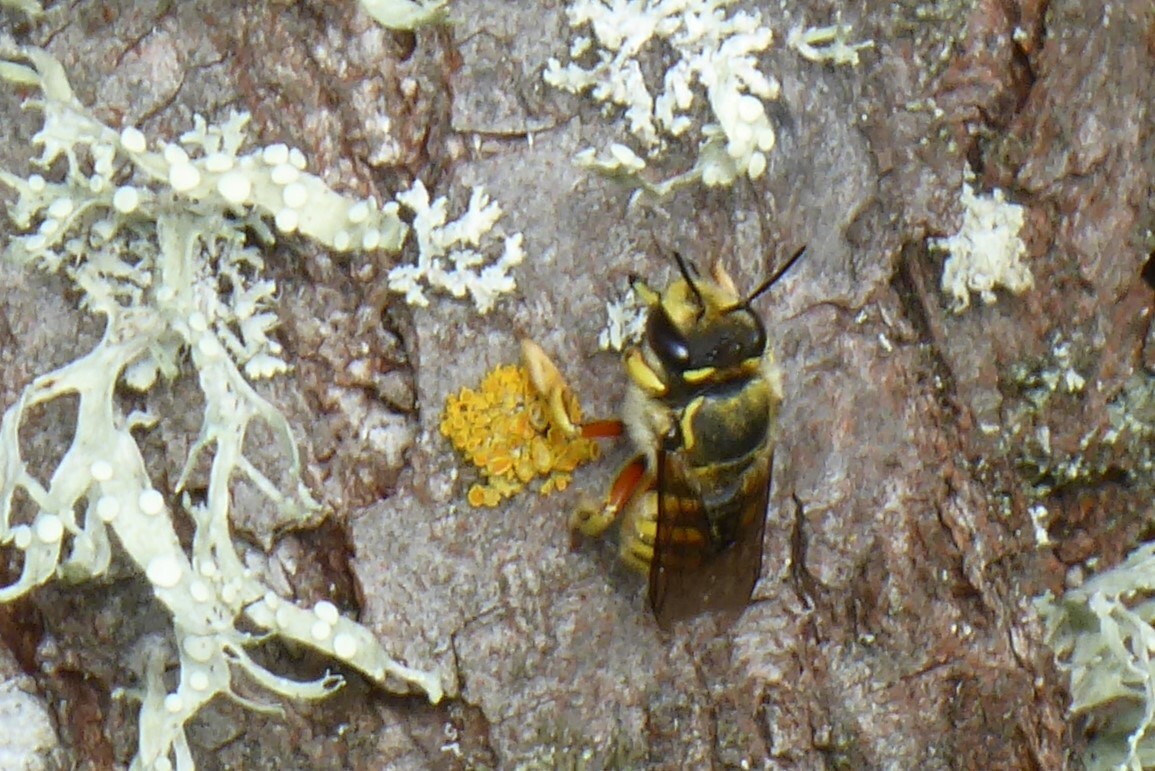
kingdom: Animalia
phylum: Arthropoda
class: Insecta
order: Hymenoptera
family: Megachilidae
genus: Anthidium
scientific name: Anthidium manicatum
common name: Wool carder bee
